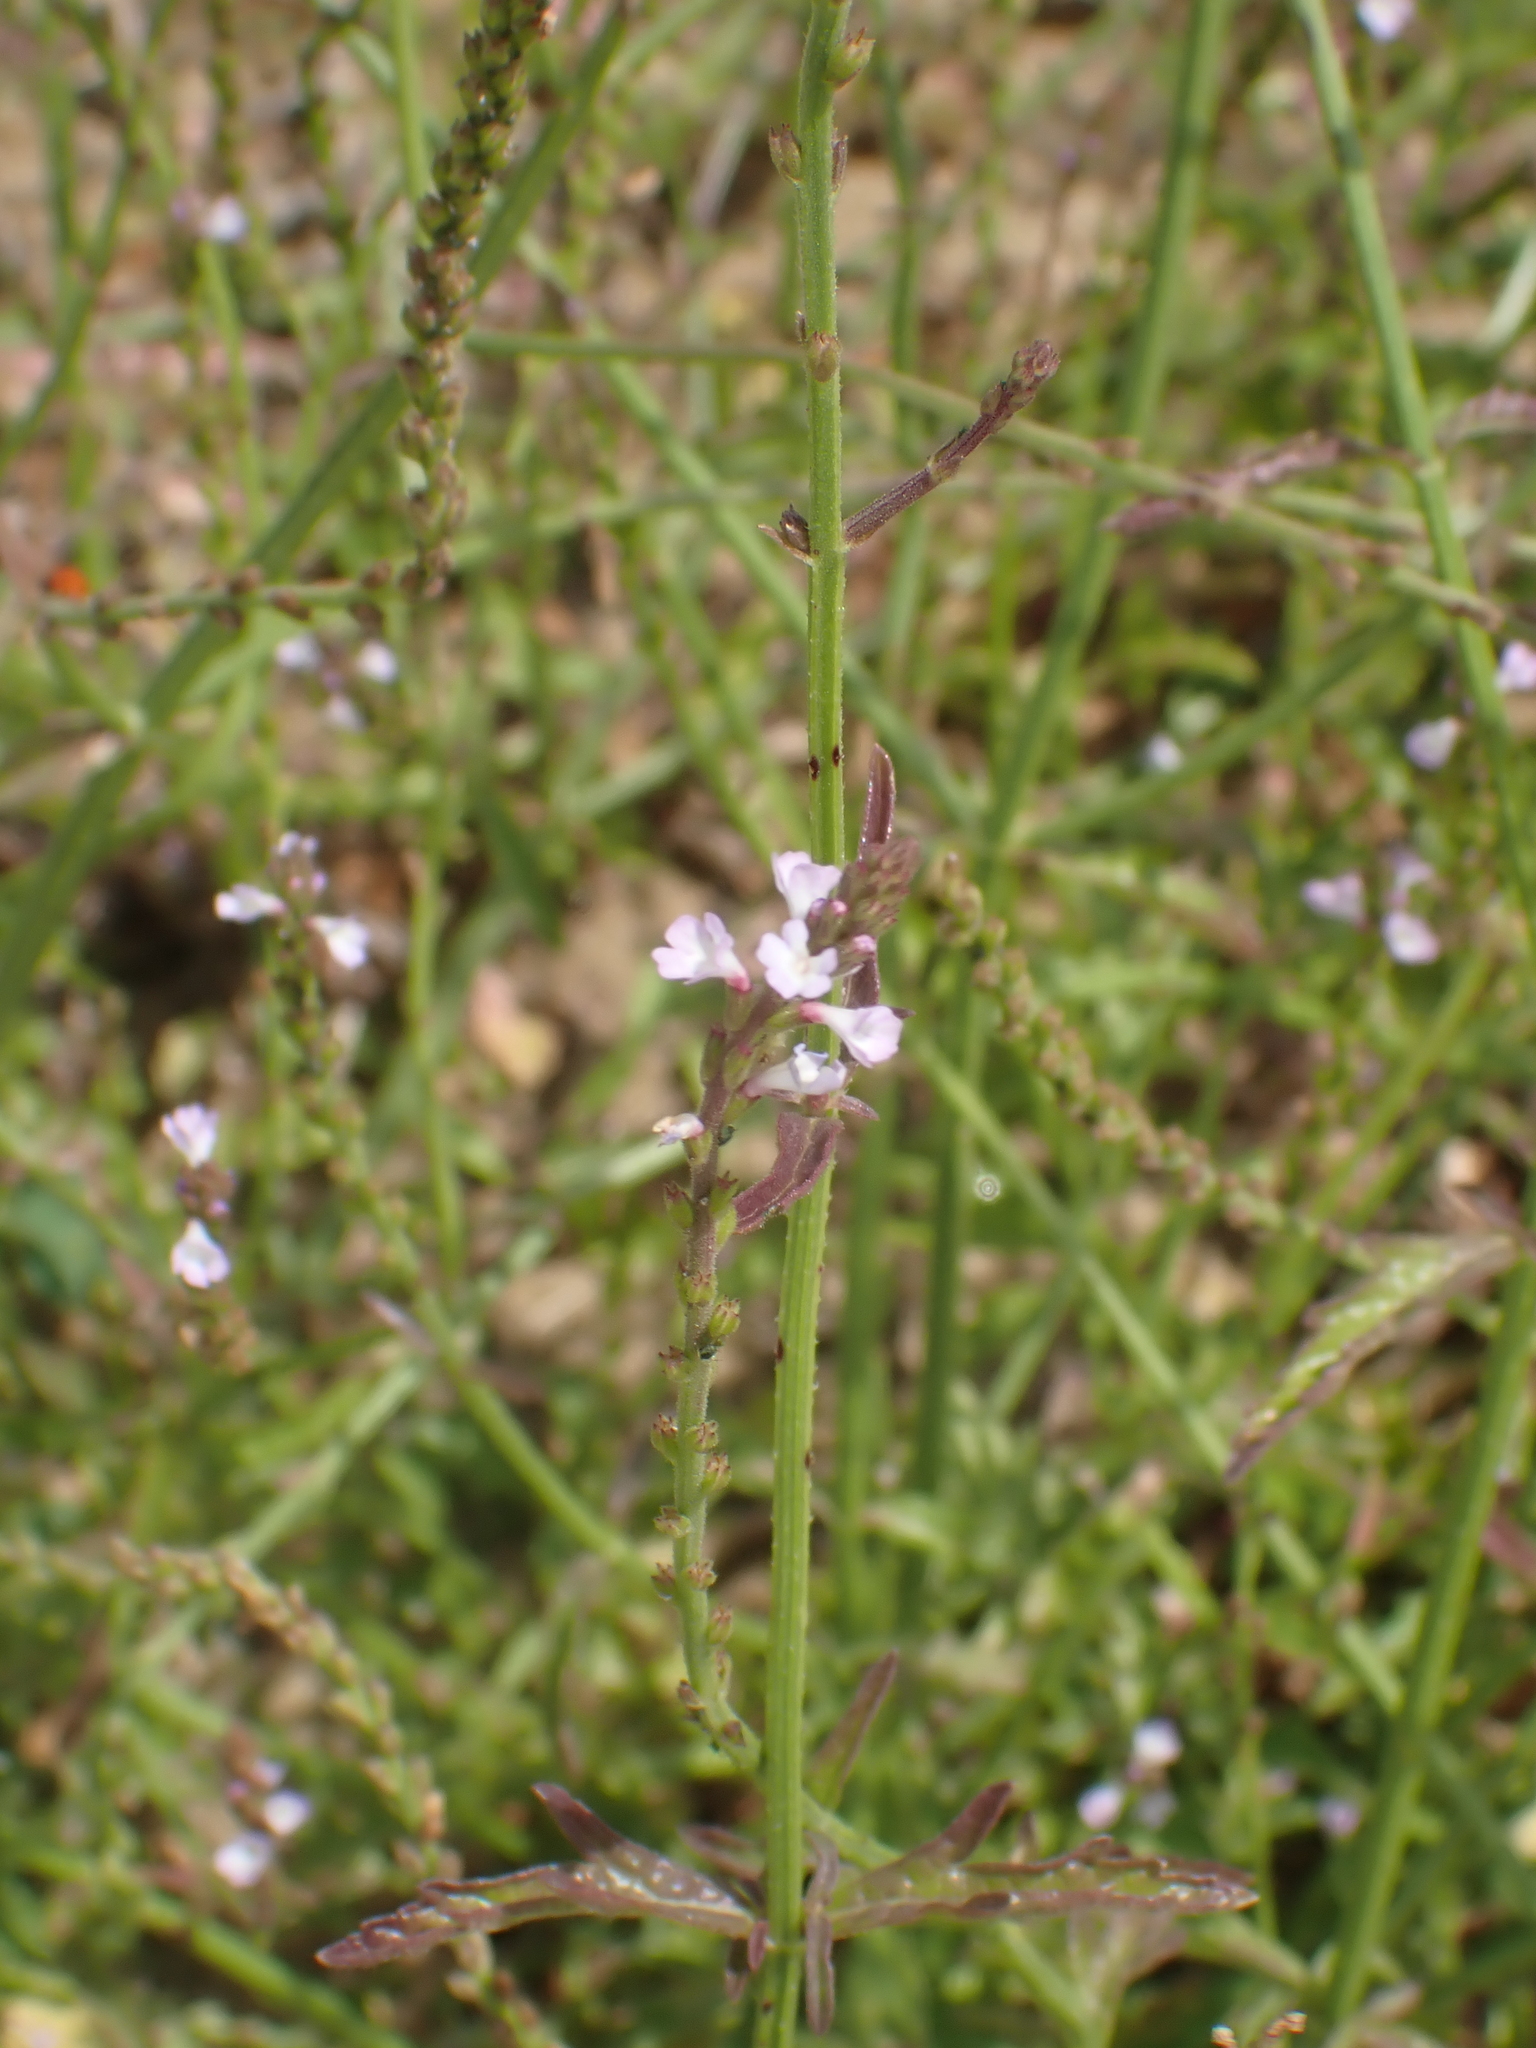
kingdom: Plantae
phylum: Tracheophyta
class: Magnoliopsida
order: Lamiales
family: Verbenaceae
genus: Verbena
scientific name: Verbena officinalis
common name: Vervain
